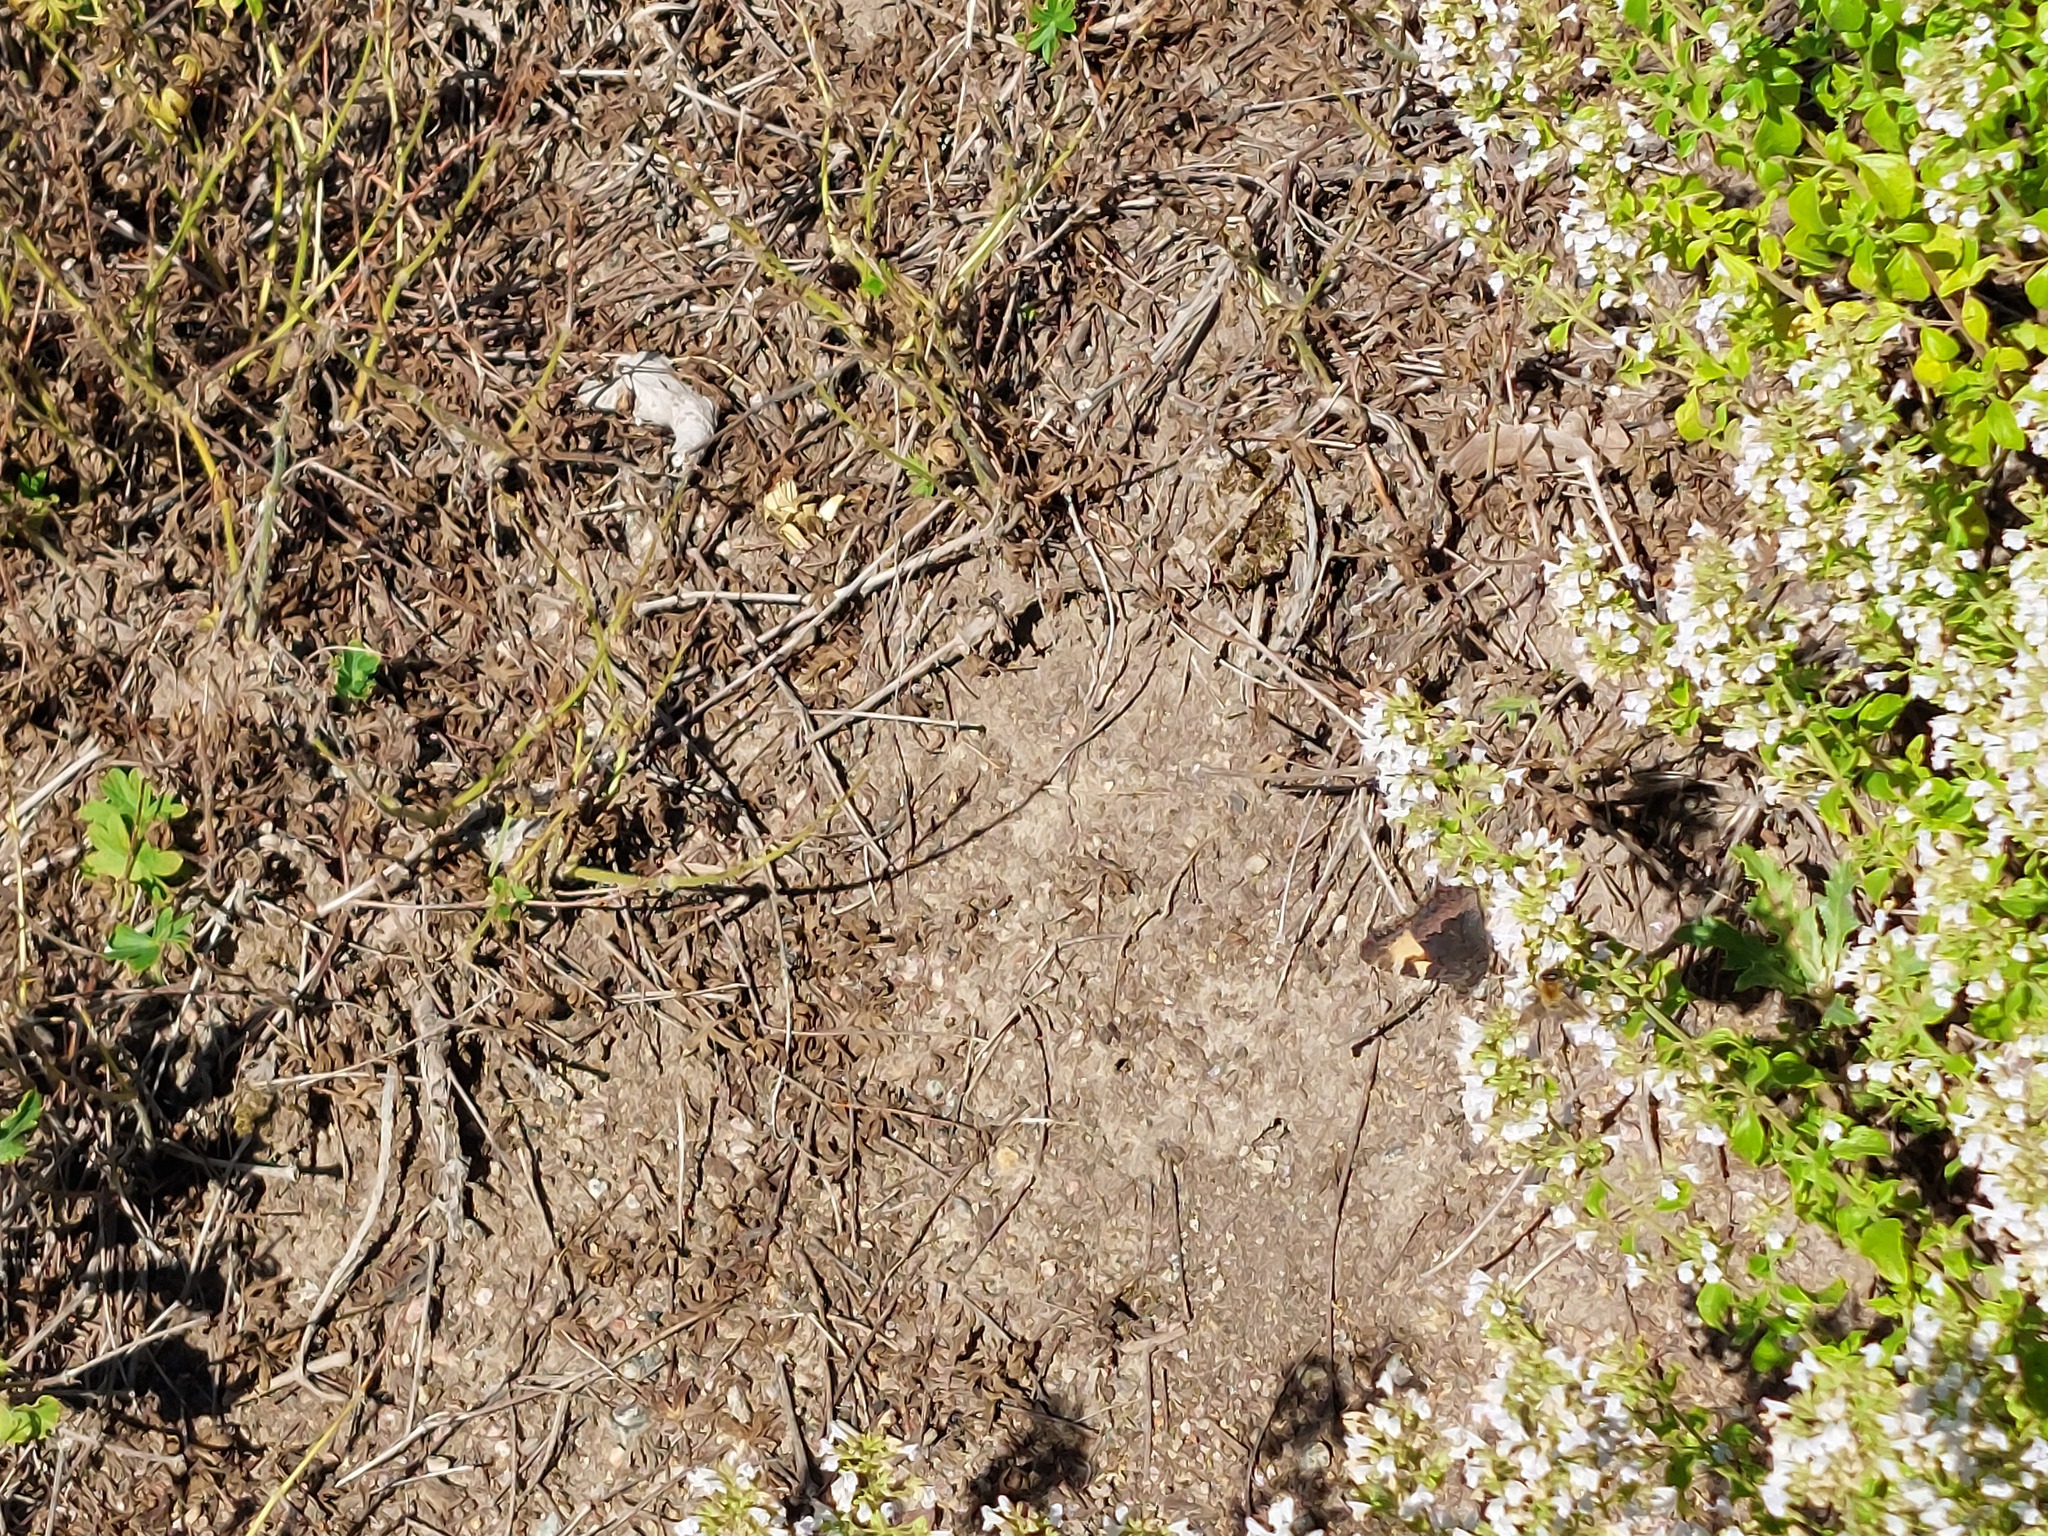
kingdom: Animalia
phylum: Arthropoda
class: Insecta
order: Lepidoptera
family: Nymphalidae
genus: Aglais
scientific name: Aglais urticae
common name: Small tortoiseshell
